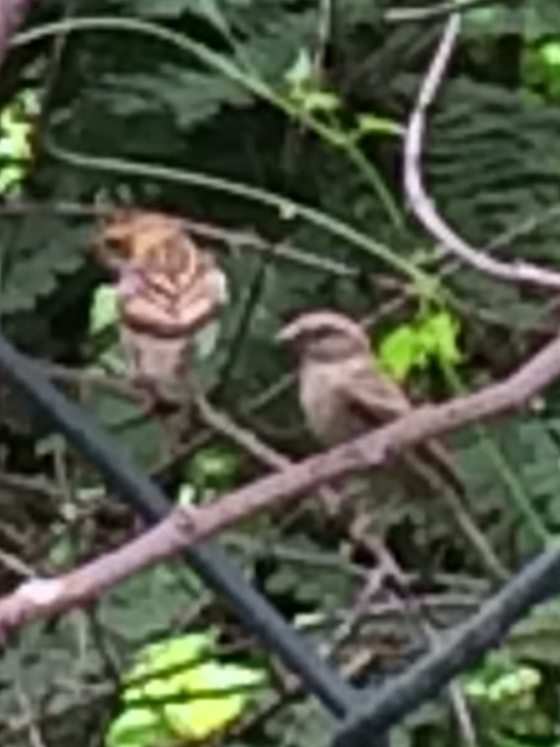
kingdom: Animalia
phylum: Chordata
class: Aves
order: Passeriformes
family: Passeridae
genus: Passer
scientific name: Passer domesticus
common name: House sparrow
